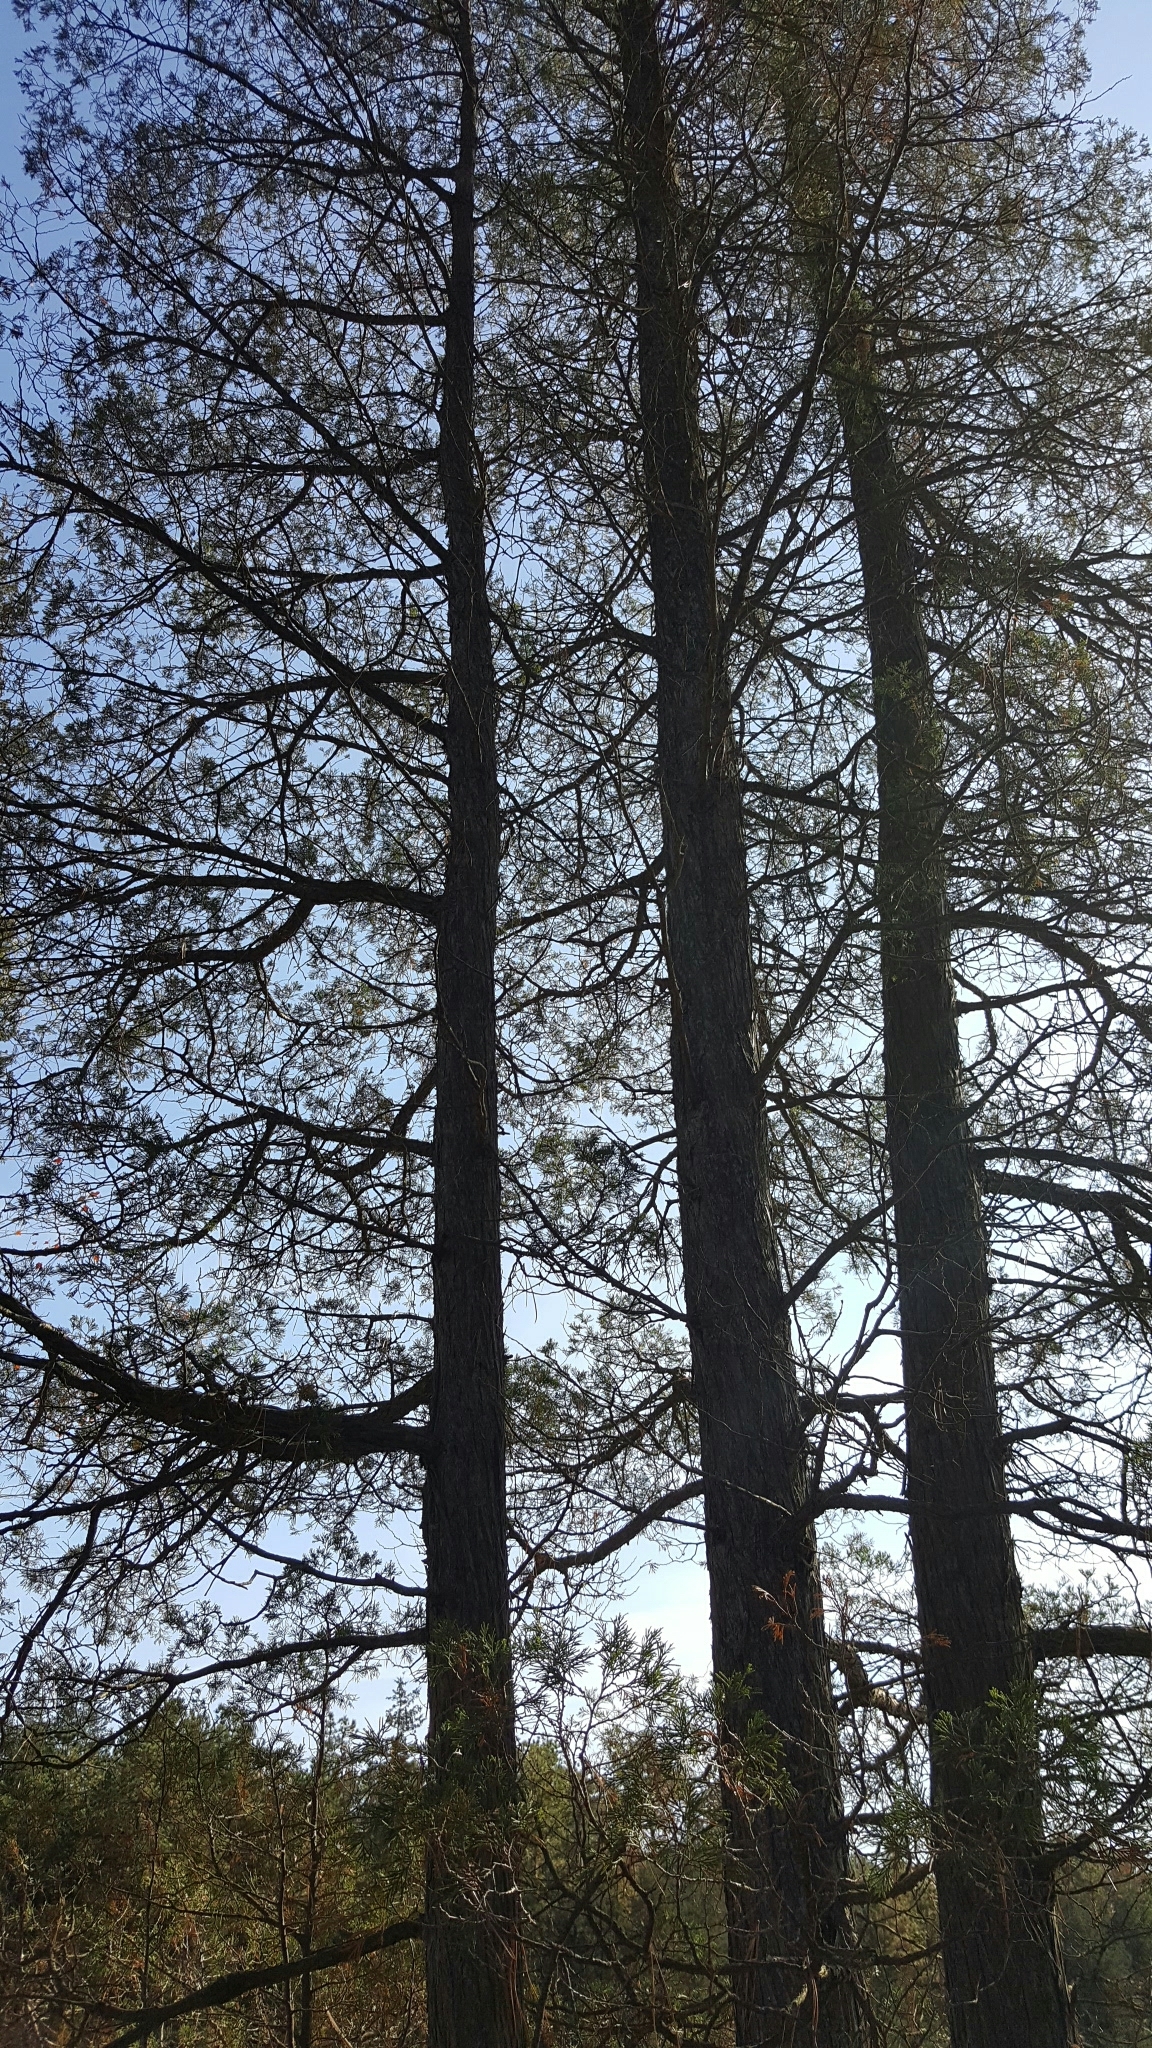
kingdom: Plantae
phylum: Tracheophyta
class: Pinopsida
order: Pinales
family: Cupressaceae
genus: Chamaecyparis
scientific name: Chamaecyparis thyoides
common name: Atlantic white cedar
